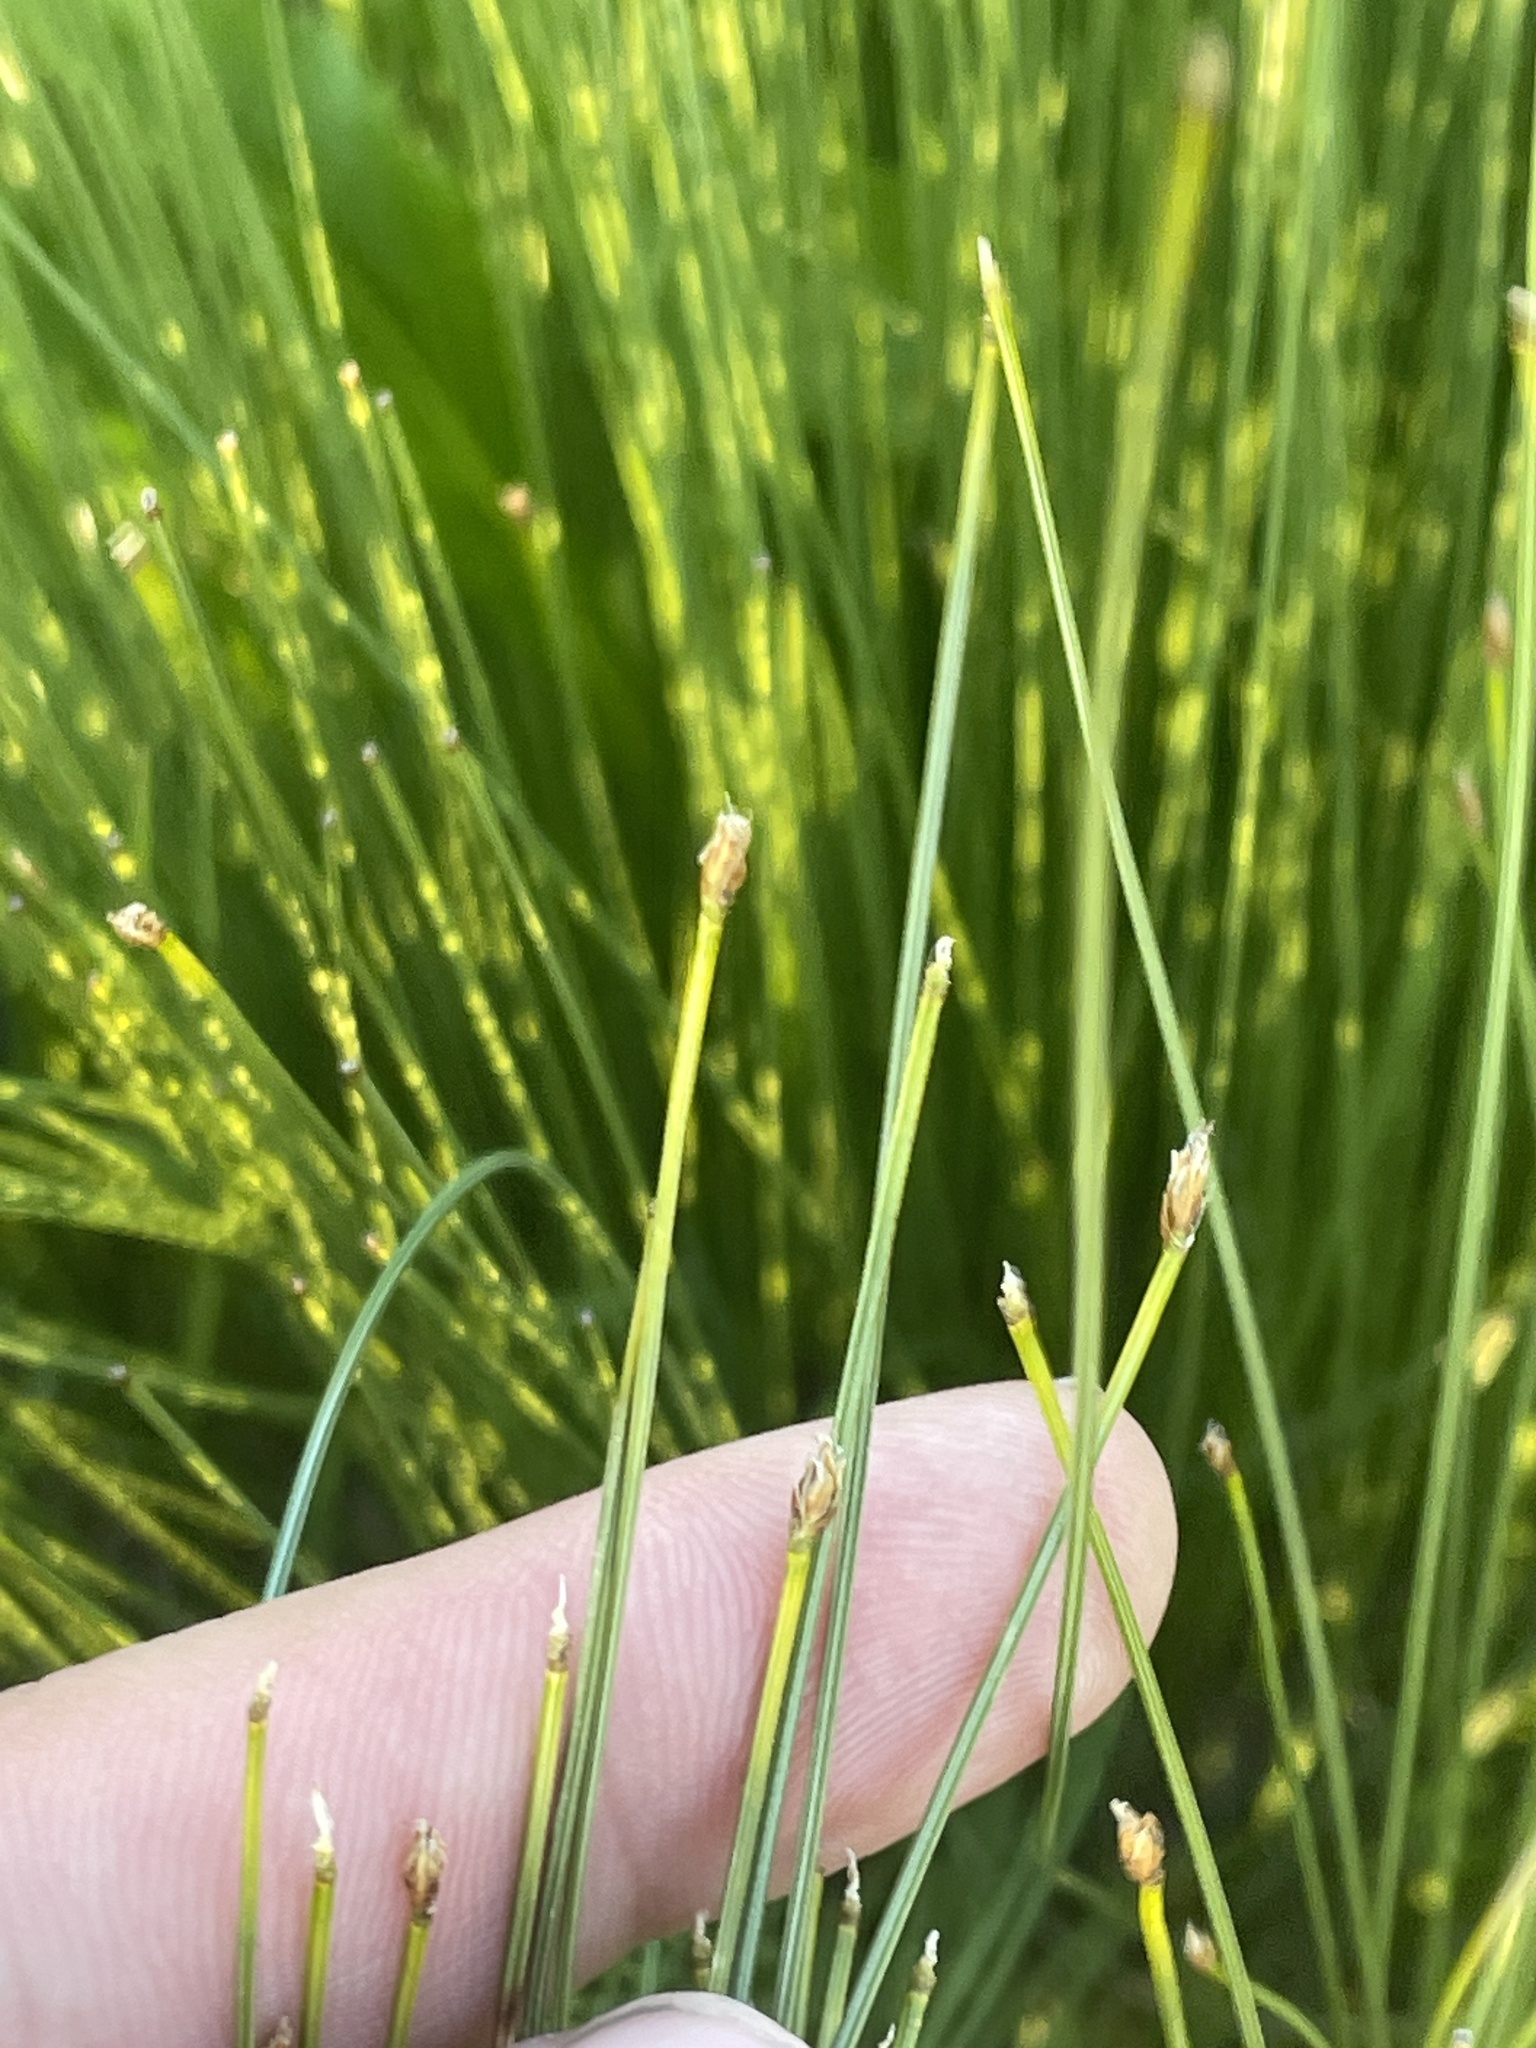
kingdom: Plantae
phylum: Tracheophyta
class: Liliopsida
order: Poales
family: Cyperaceae
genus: Trichophorum
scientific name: Trichophorum cespitosum
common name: Cespitose bulrush
